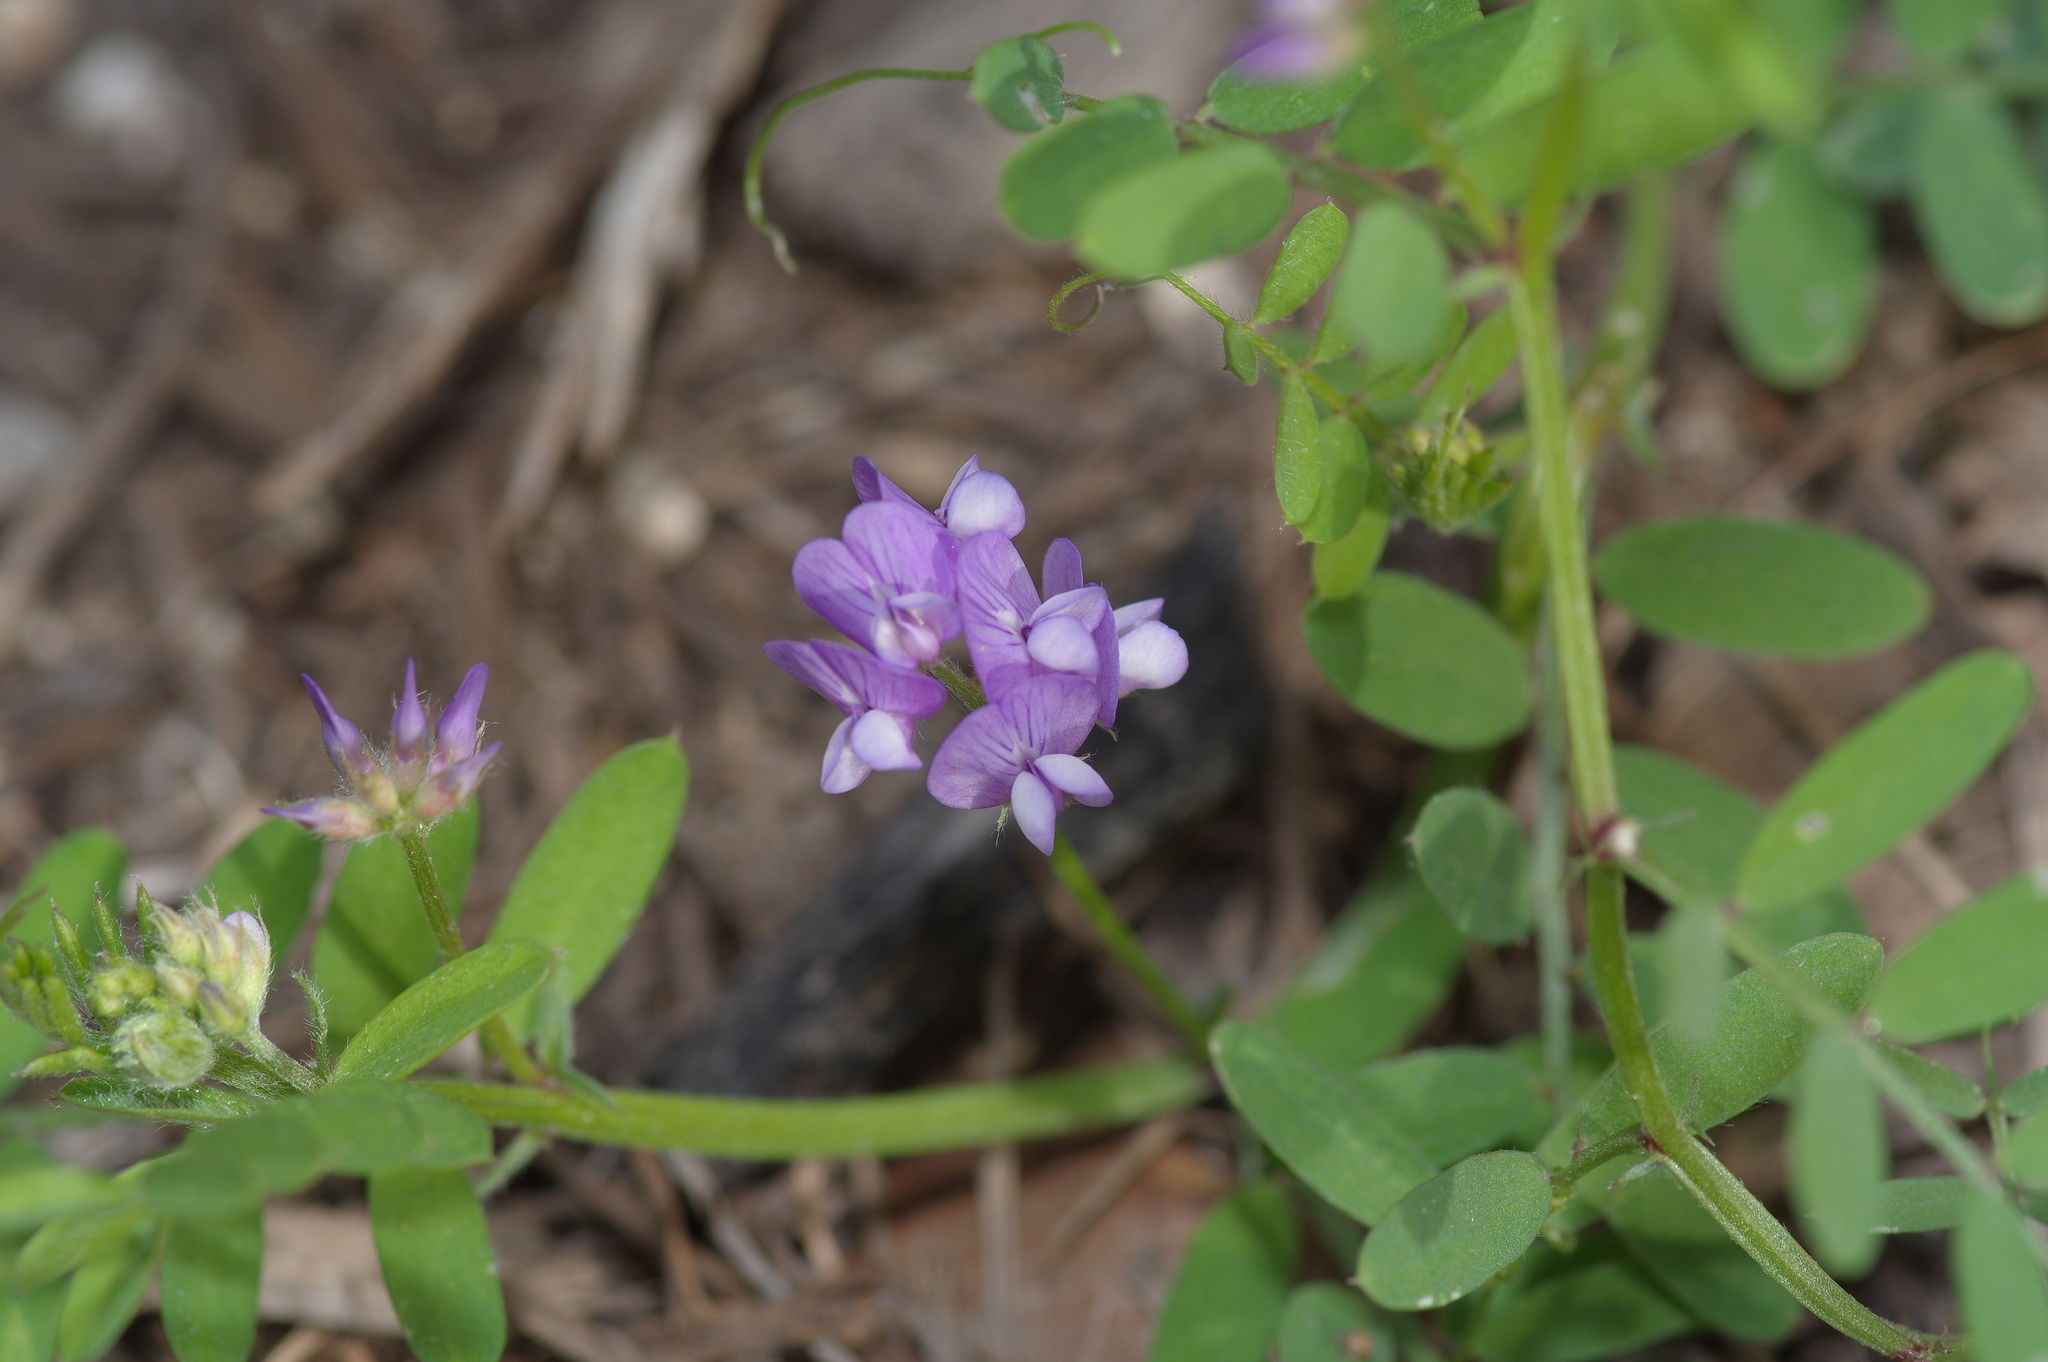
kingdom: Plantae
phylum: Tracheophyta
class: Magnoliopsida
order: Fabales
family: Fabaceae
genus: Vicia
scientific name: Vicia ludoviciana
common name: Louisiana vetch
